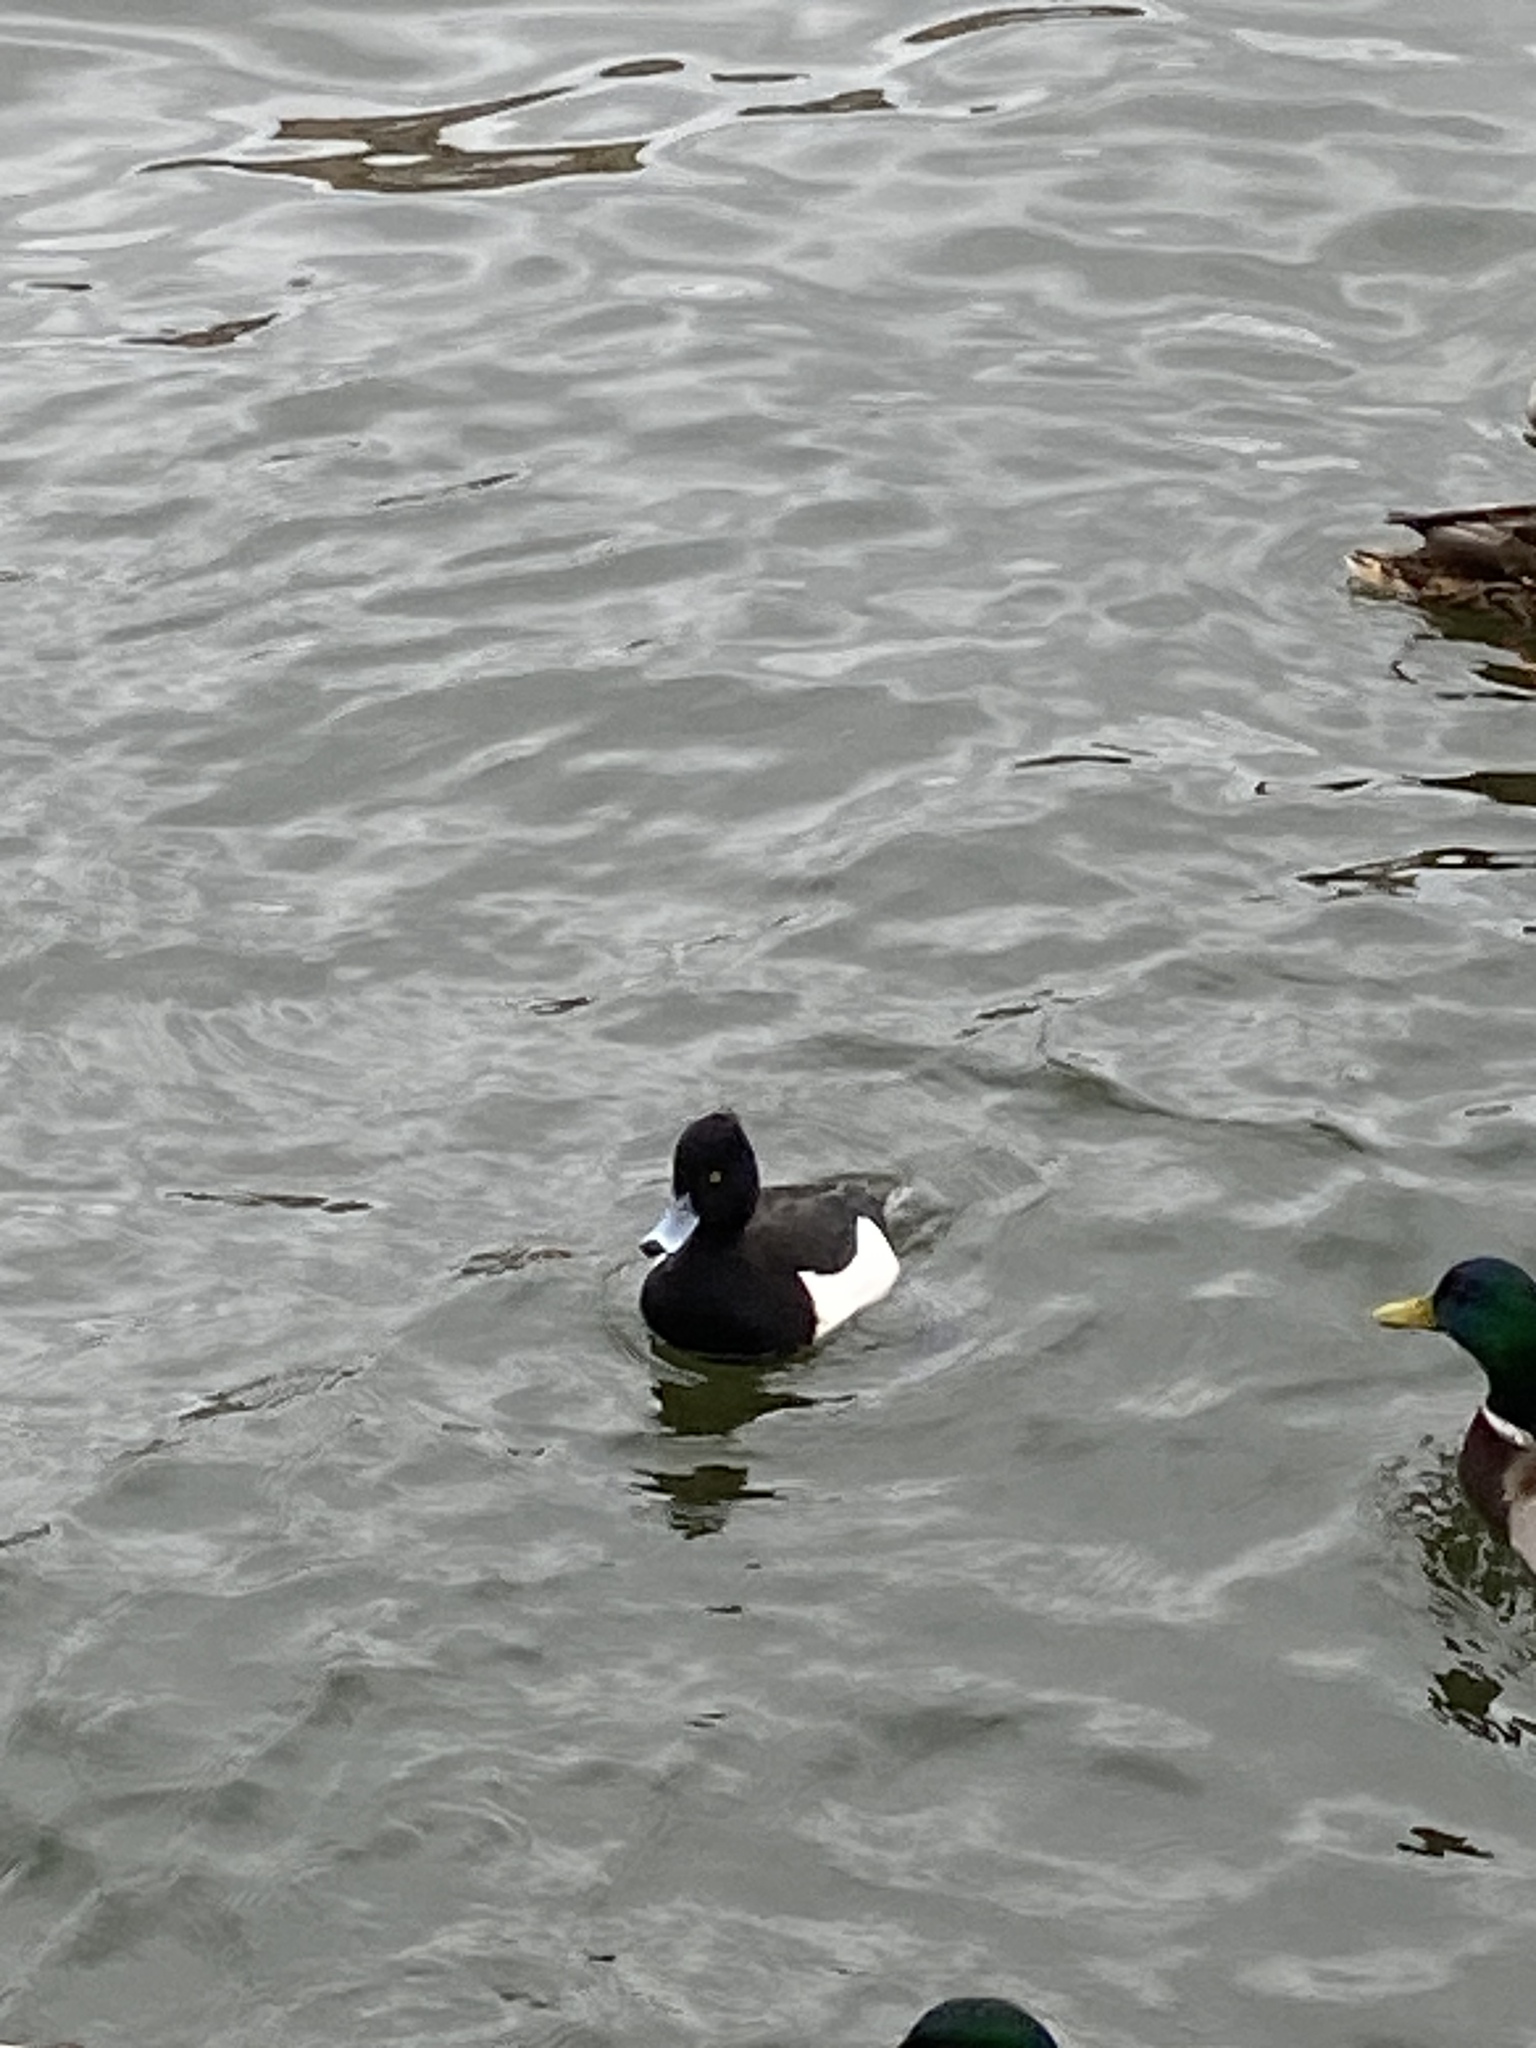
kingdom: Animalia
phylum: Chordata
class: Aves
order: Anseriformes
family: Anatidae
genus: Aythya
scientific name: Aythya fuligula
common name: Tufted duck
